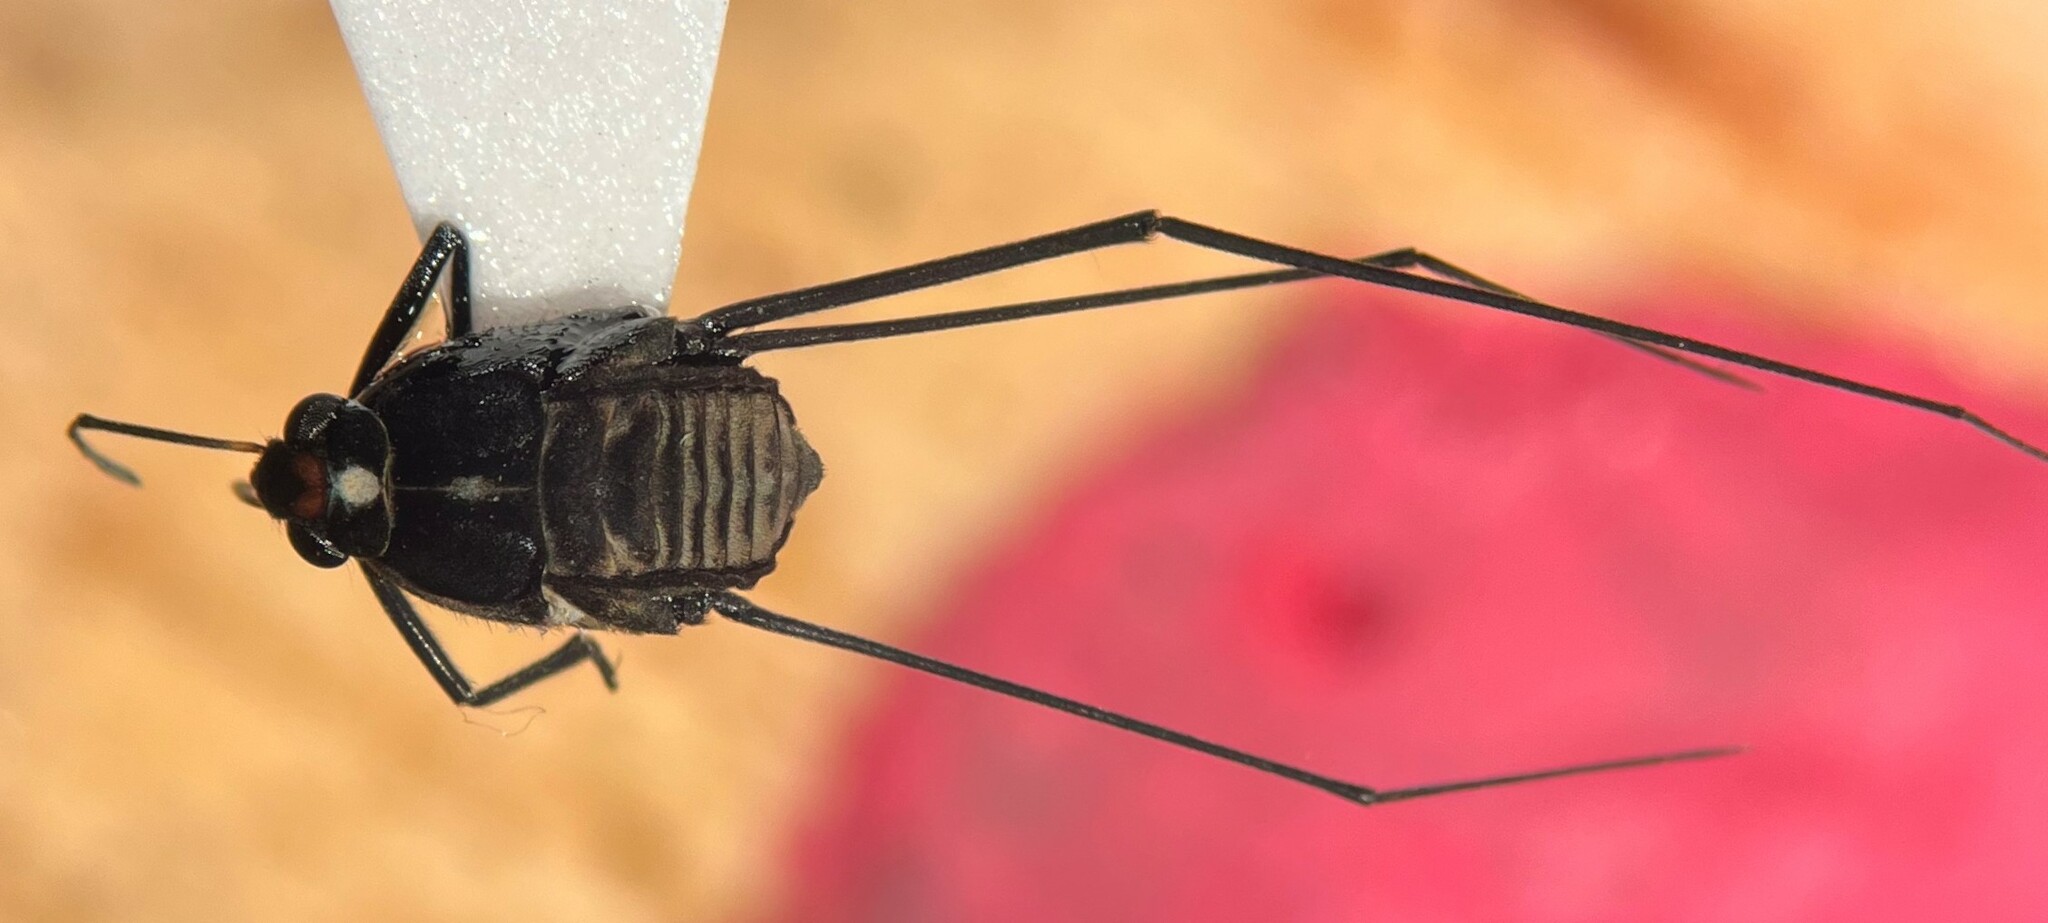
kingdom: Animalia
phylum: Arthropoda
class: Insecta
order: Hemiptera
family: Gerridae
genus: Metrobates
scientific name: Metrobates hesperius
